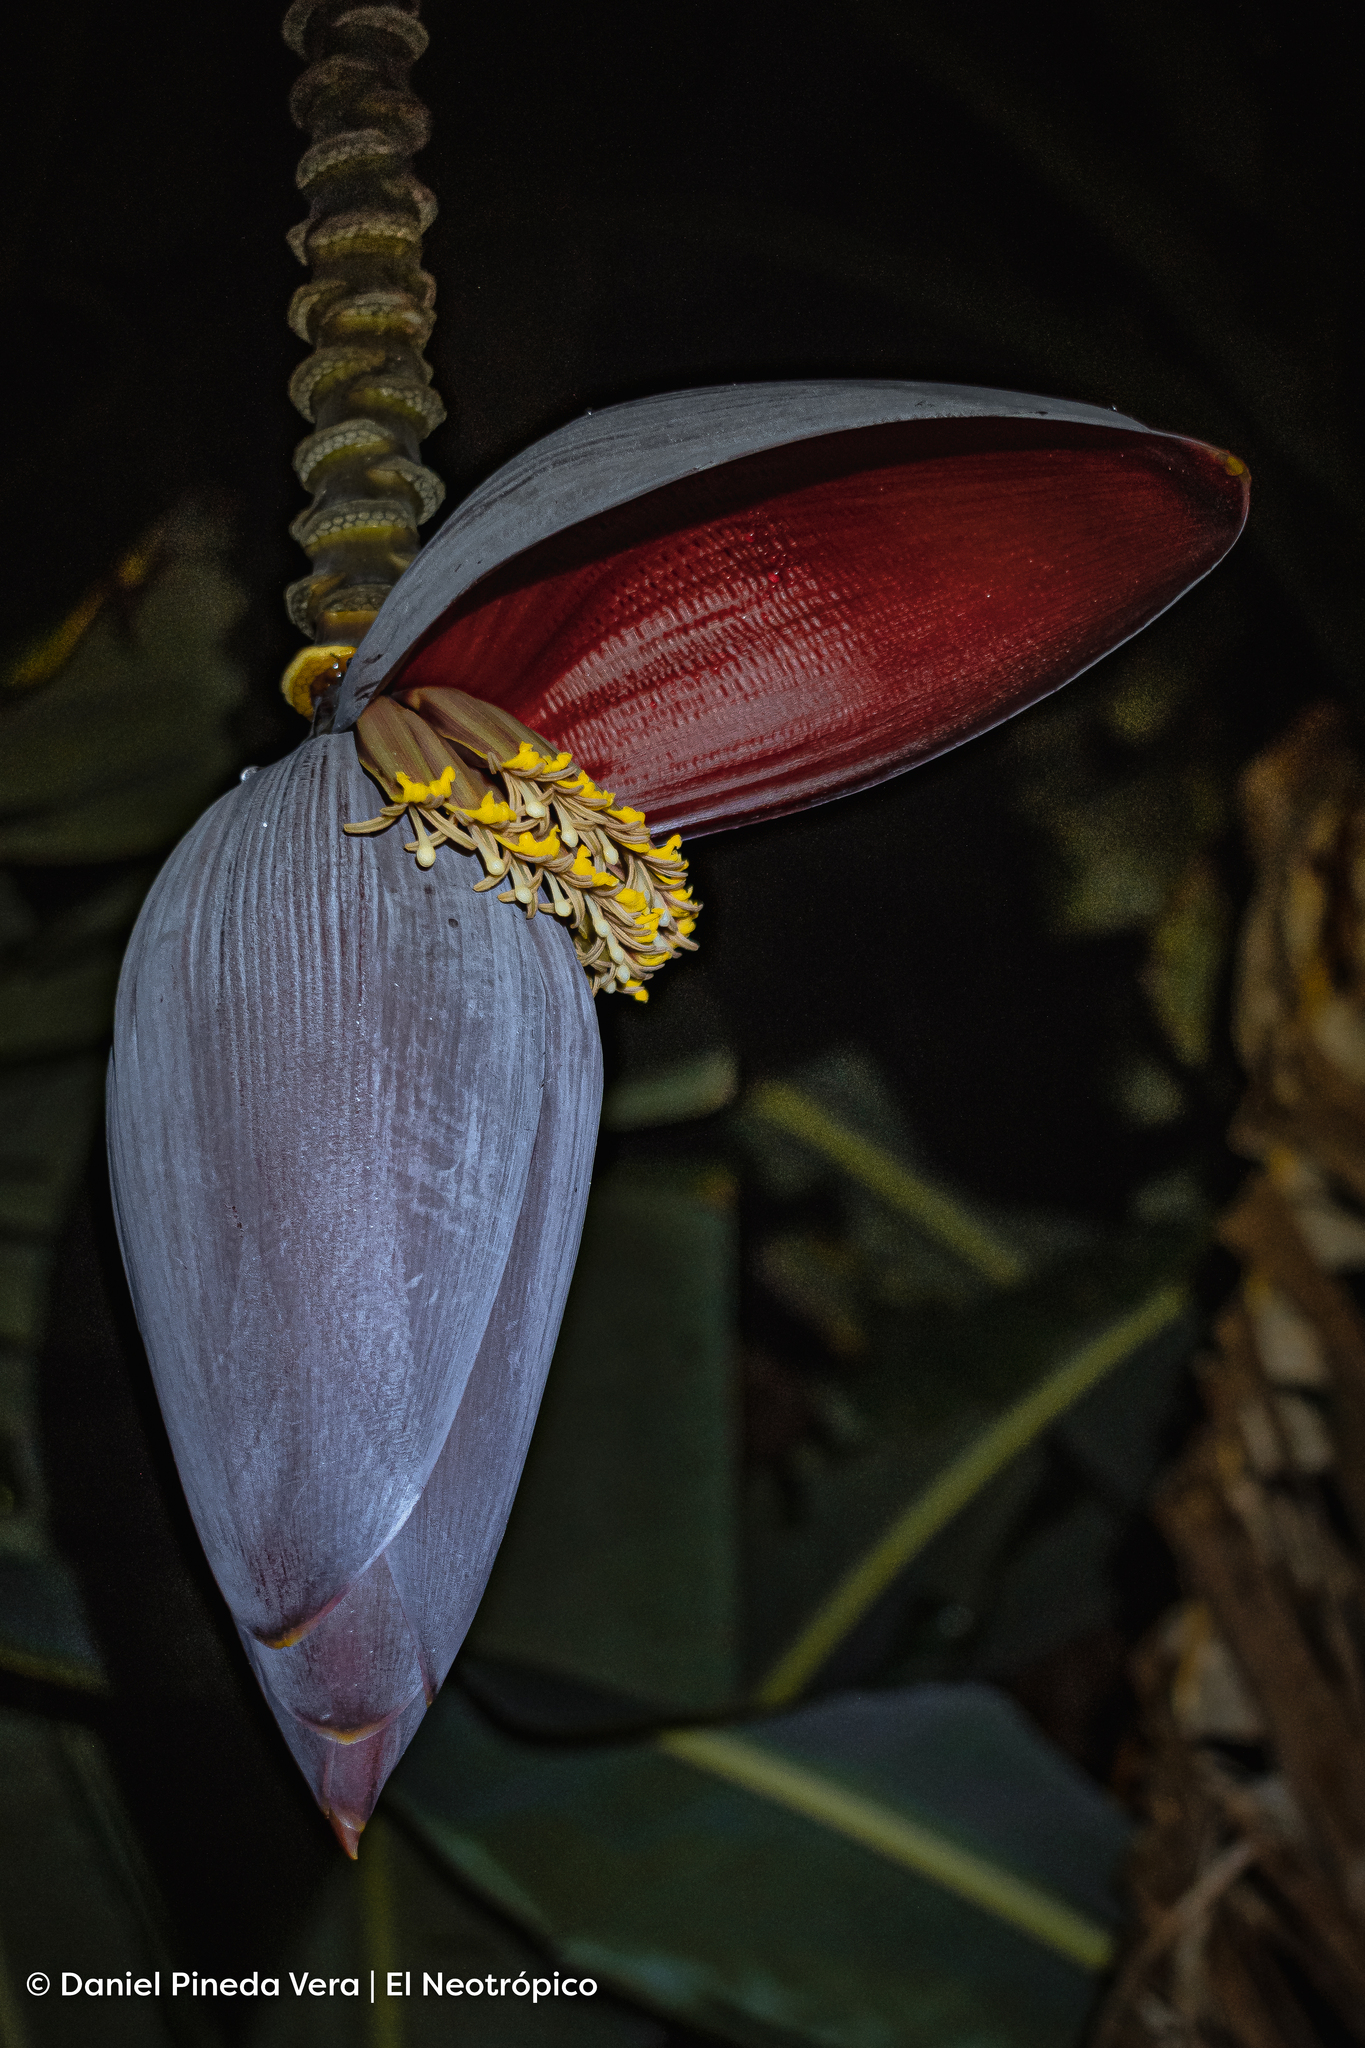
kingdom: Plantae
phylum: Tracheophyta
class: Liliopsida
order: Zingiberales
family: Musaceae
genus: Musa
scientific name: Musa paradisiaca
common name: French plantain
